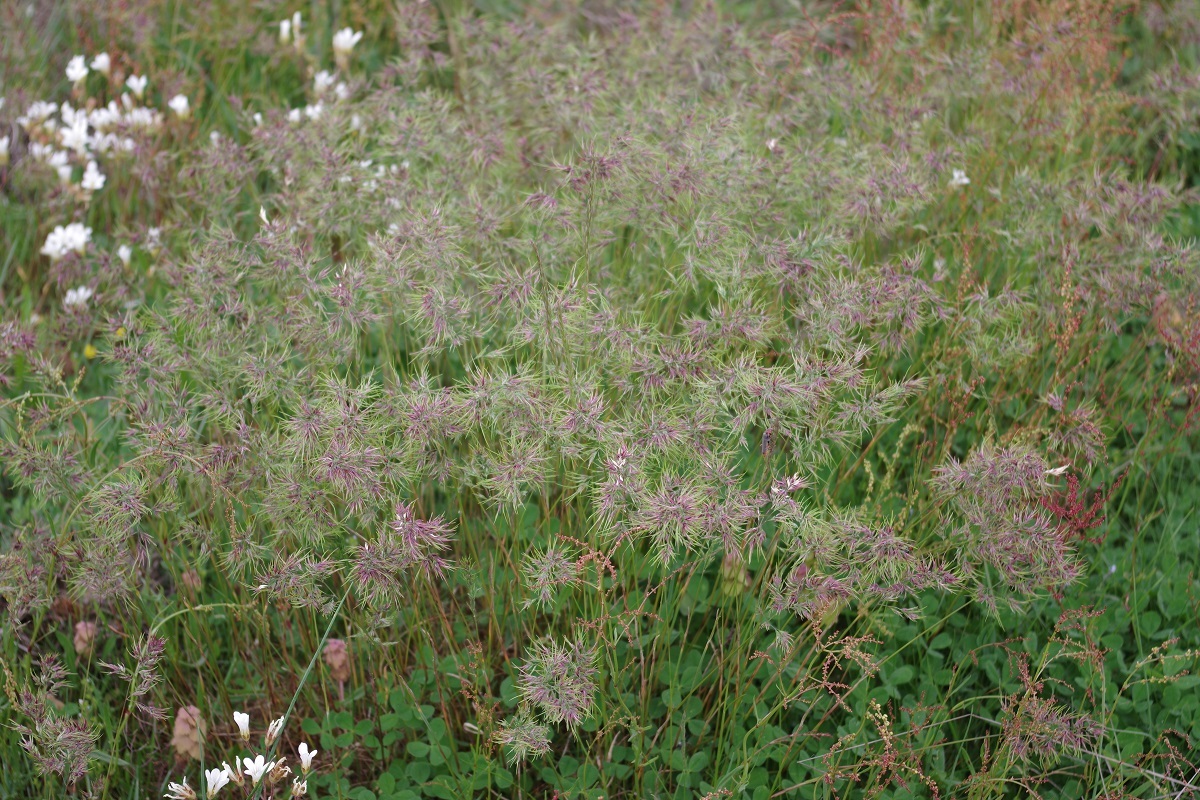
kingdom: Plantae
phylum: Tracheophyta
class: Liliopsida
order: Poales
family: Poaceae
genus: Poa
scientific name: Poa bulbosa
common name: Bulbous bluegrass
